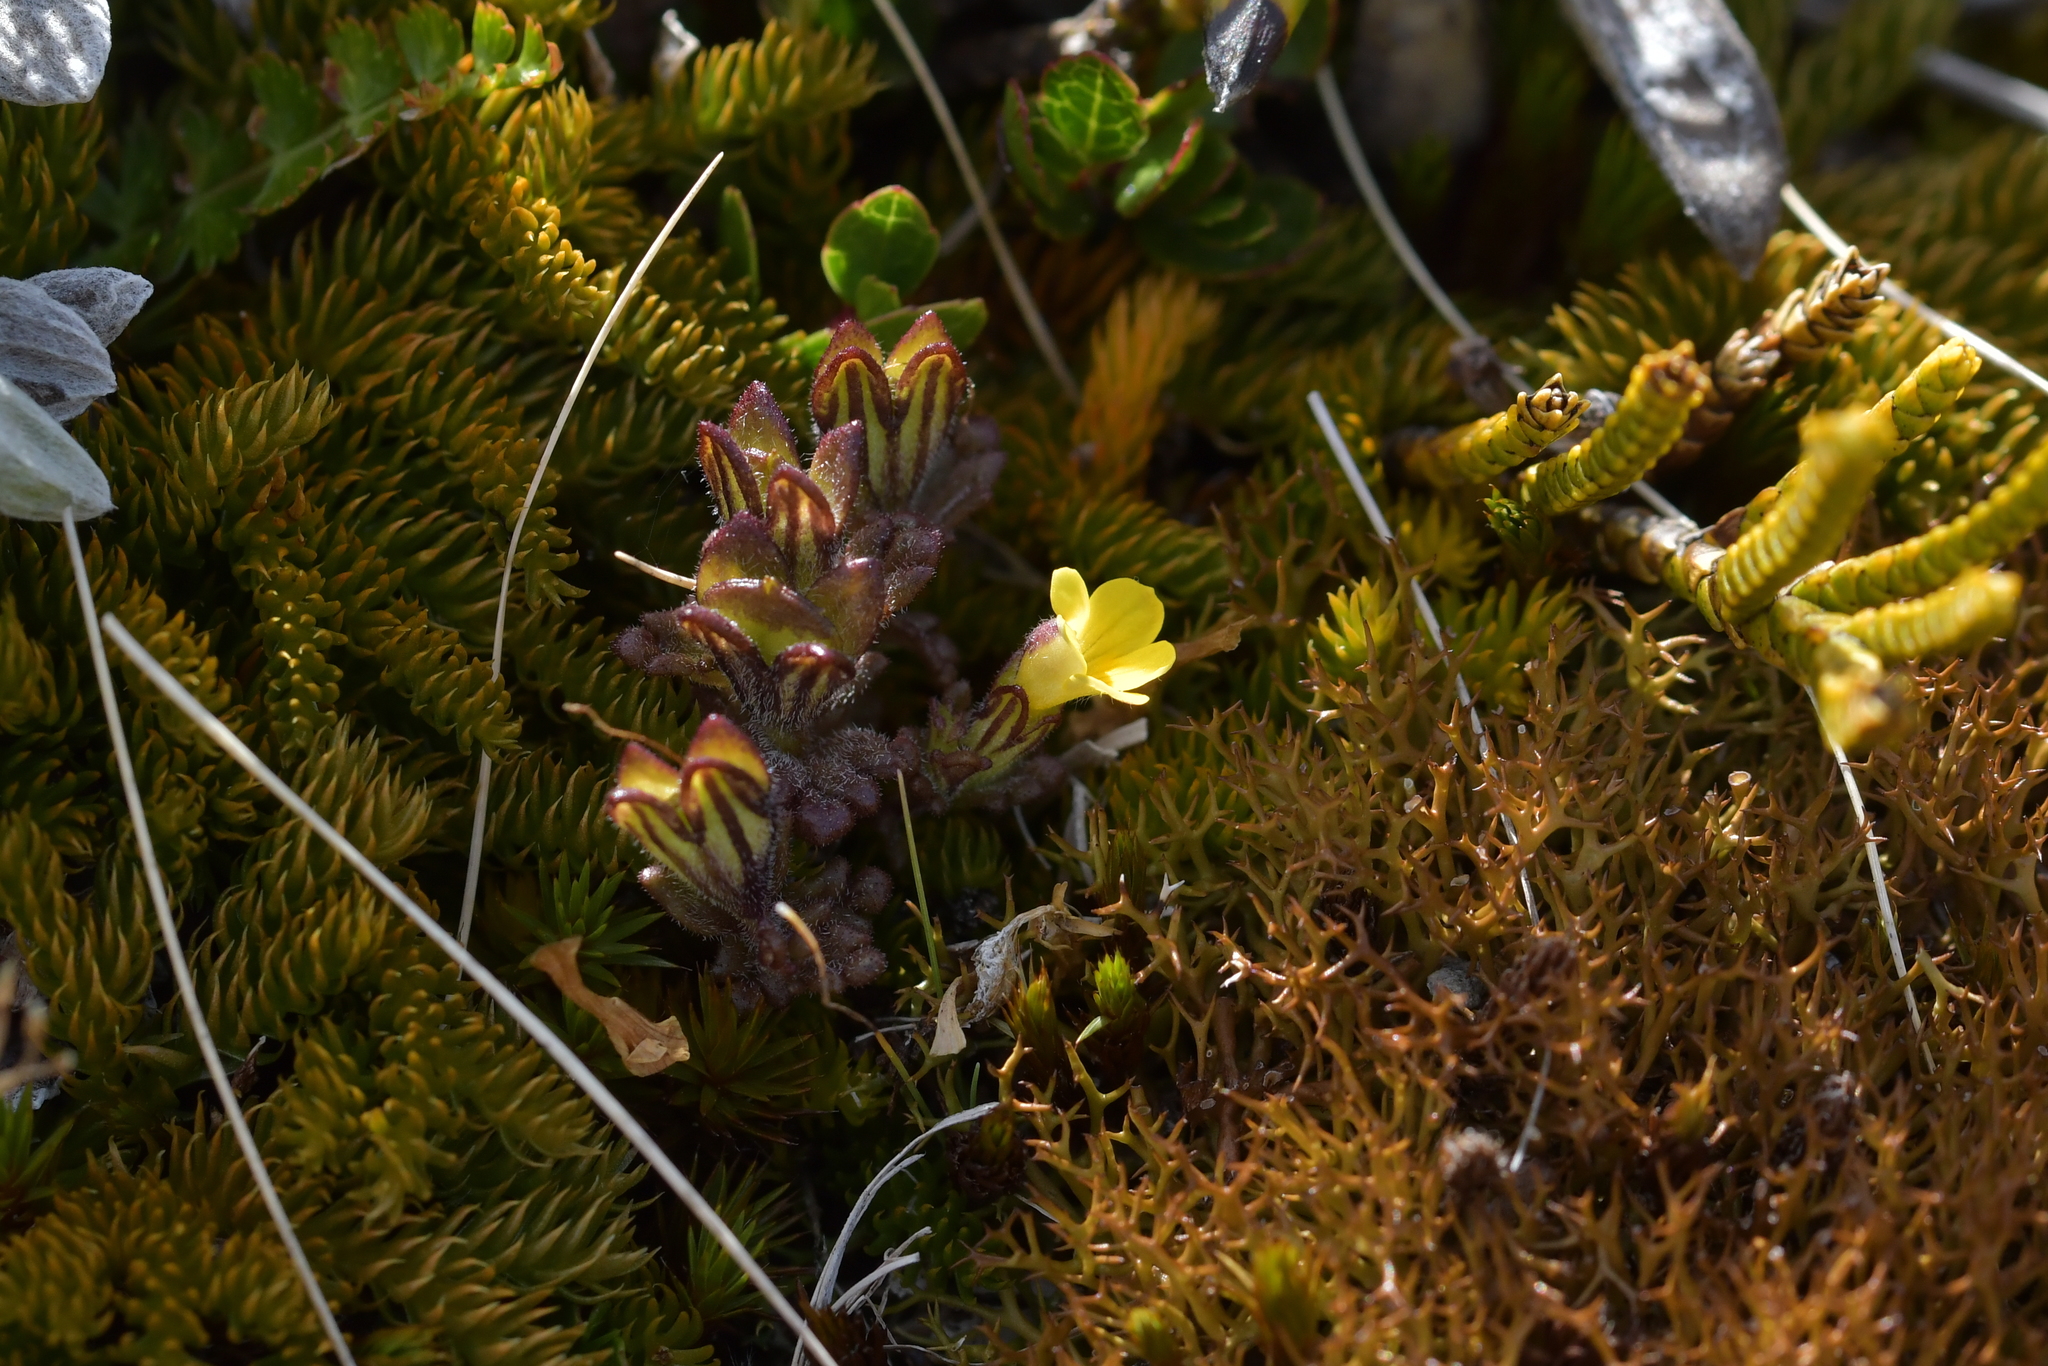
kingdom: Plantae
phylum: Tracheophyta
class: Magnoliopsida
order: Lamiales
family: Orobanchaceae
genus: Euphrasia
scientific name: Euphrasia cockayneana
